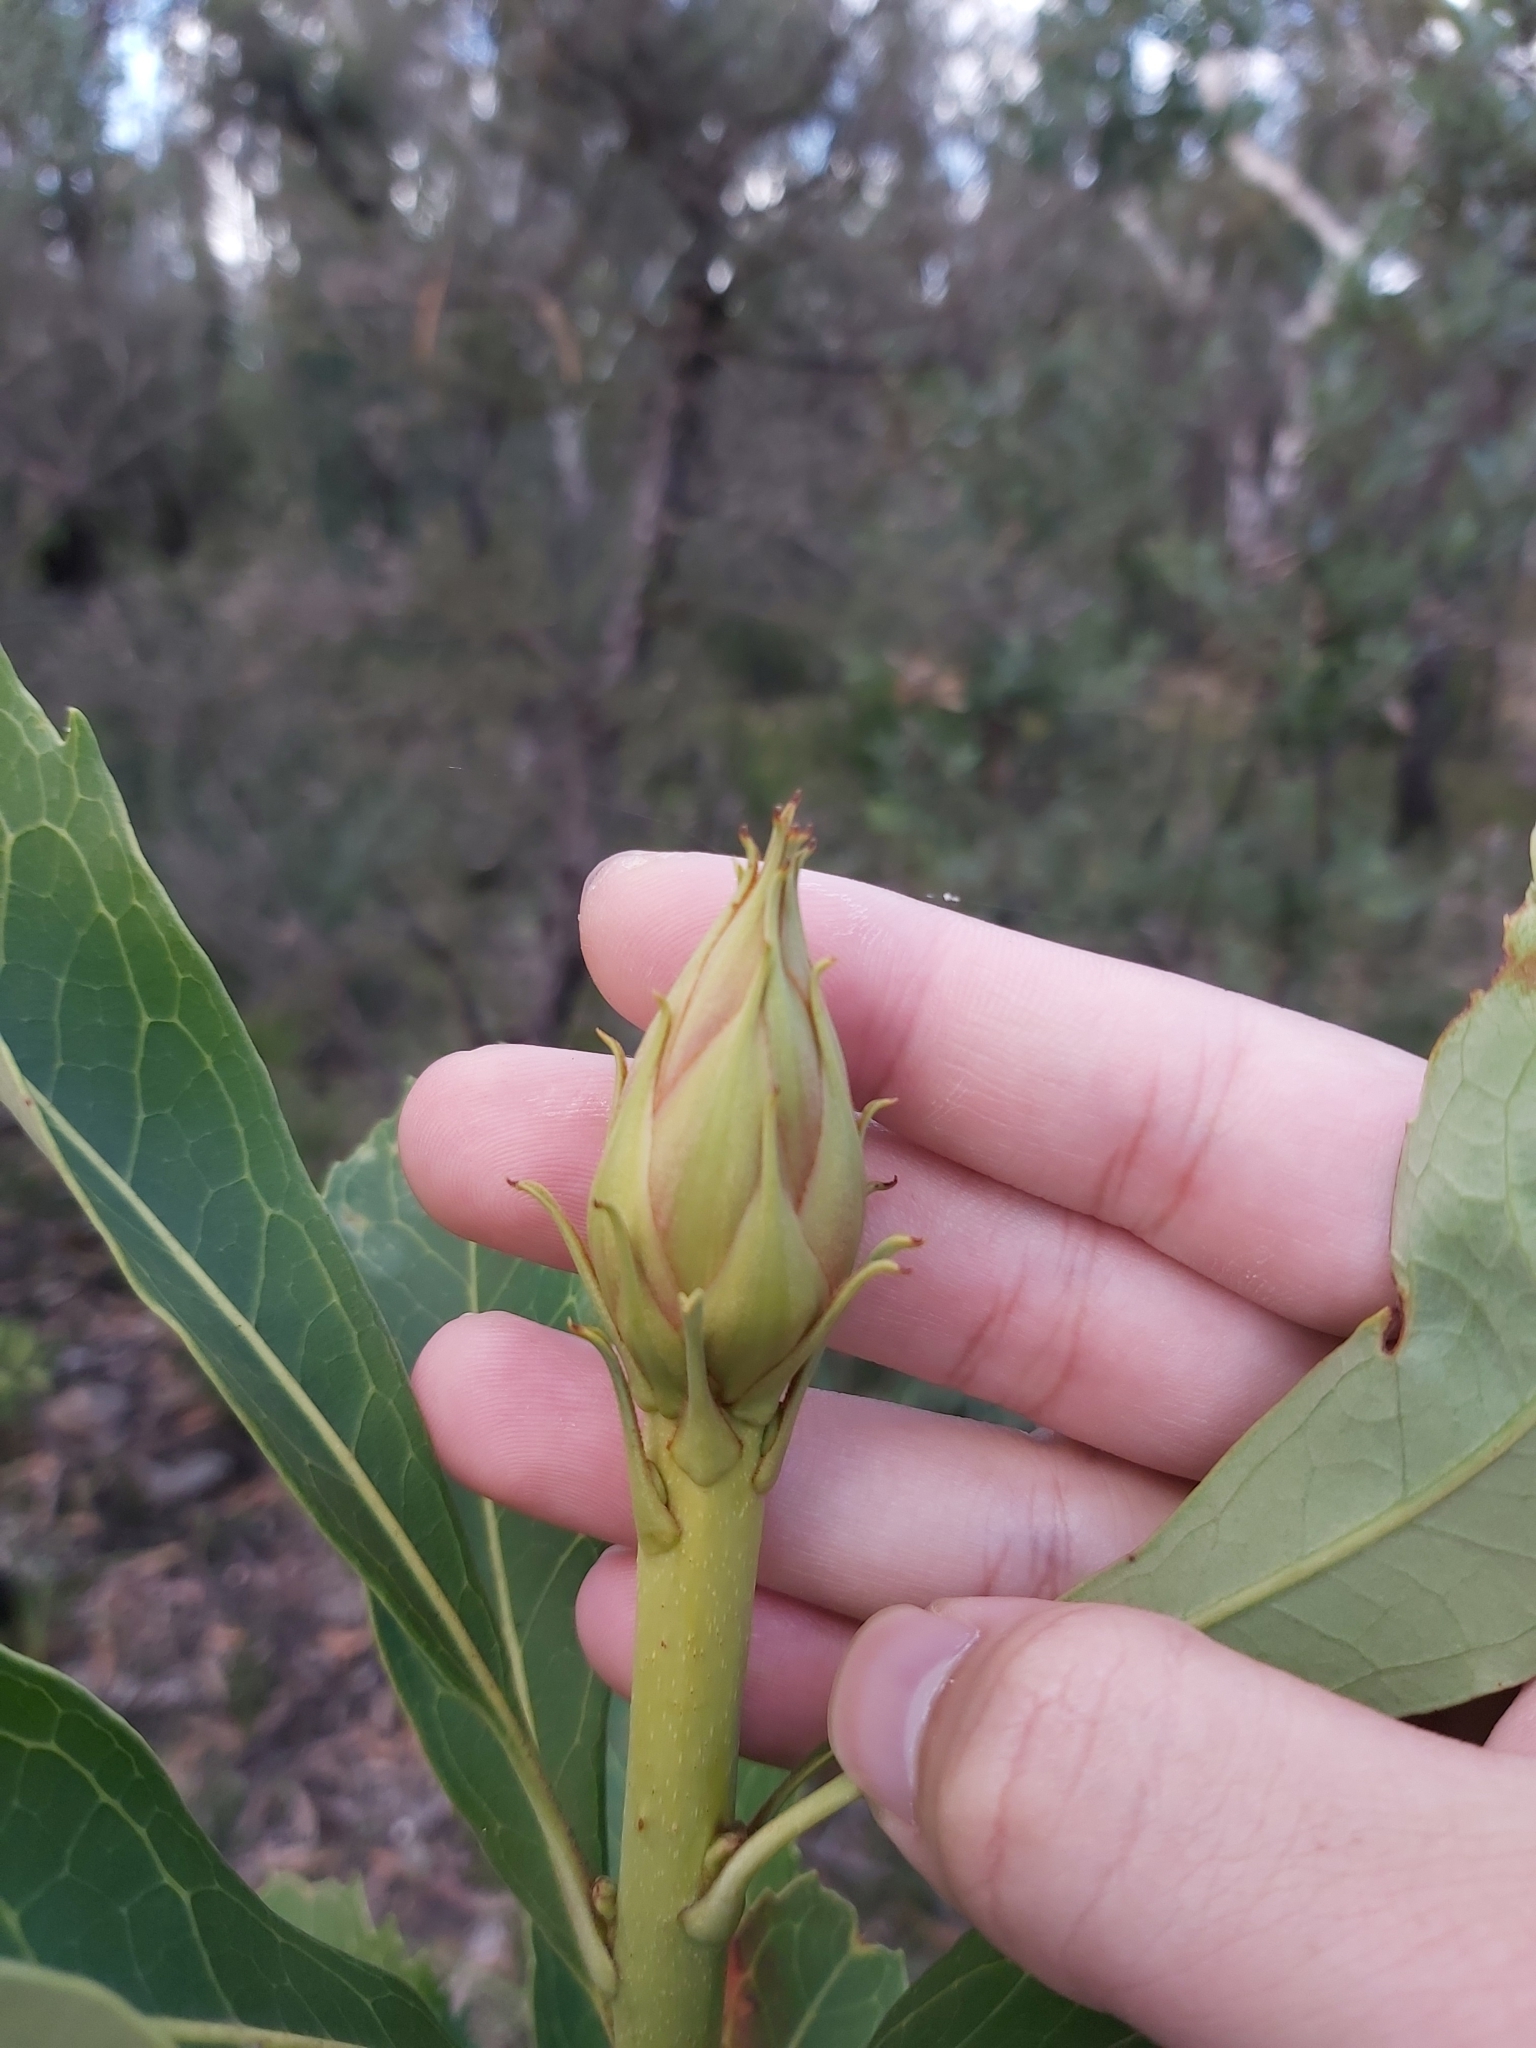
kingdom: Plantae
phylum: Tracheophyta
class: Magnoliopsida
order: Proteales
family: Proteaceae
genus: Telopea
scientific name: Telopea speciosissima
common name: New south wales waratah
